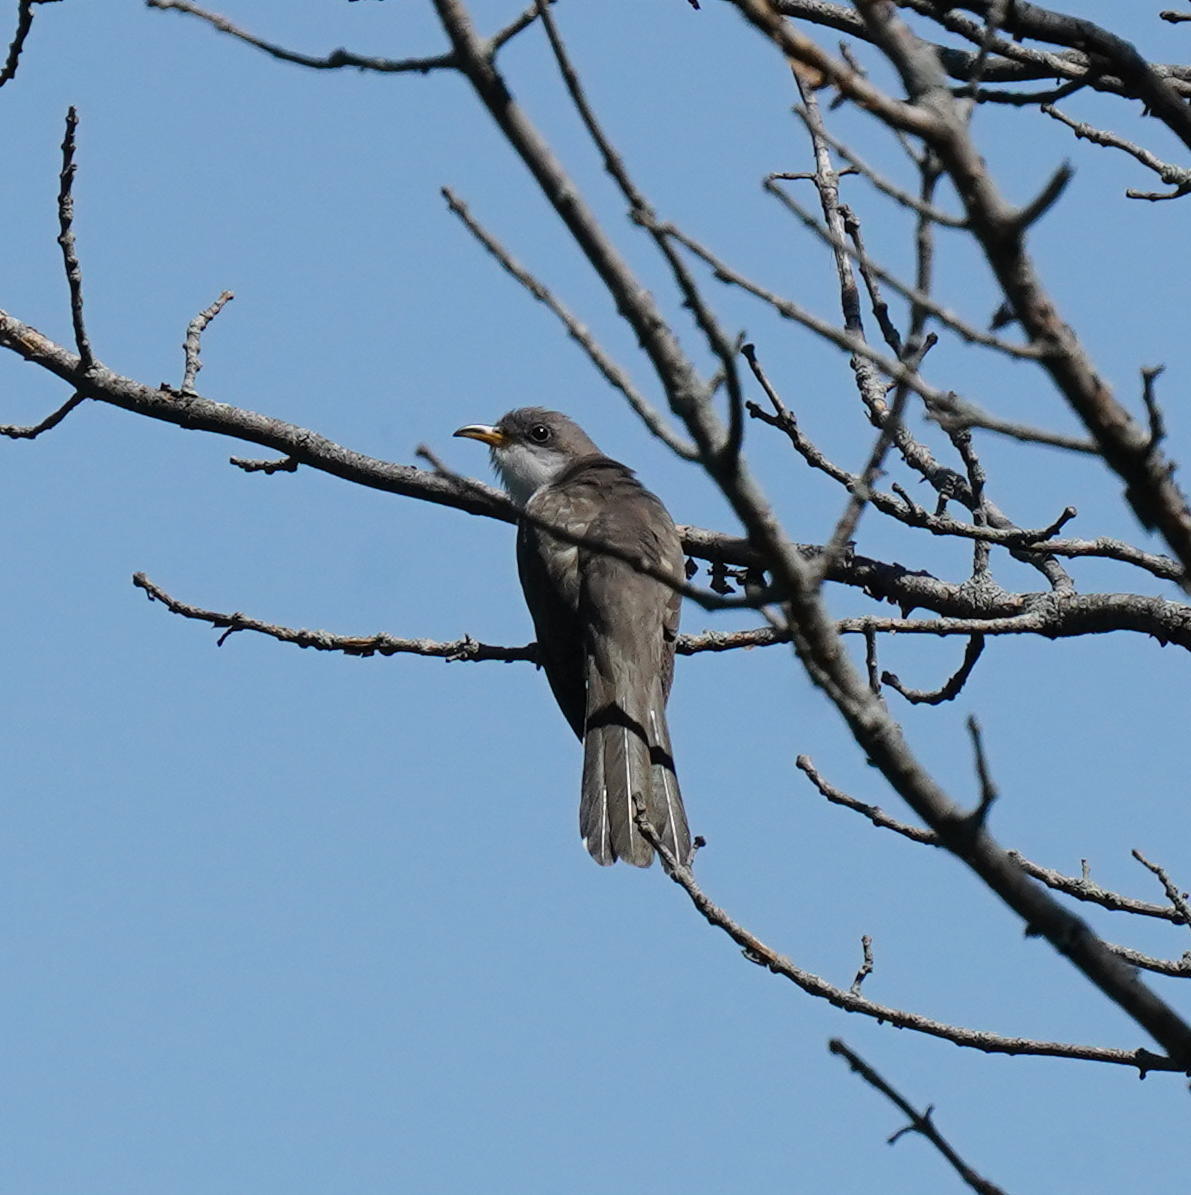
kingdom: Animalia
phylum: Chordata
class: Aves
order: Cuculiformes
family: Cuculidae
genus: Coccyzus
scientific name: Coccyzus americanus
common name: Yellow-billed cuckoo
